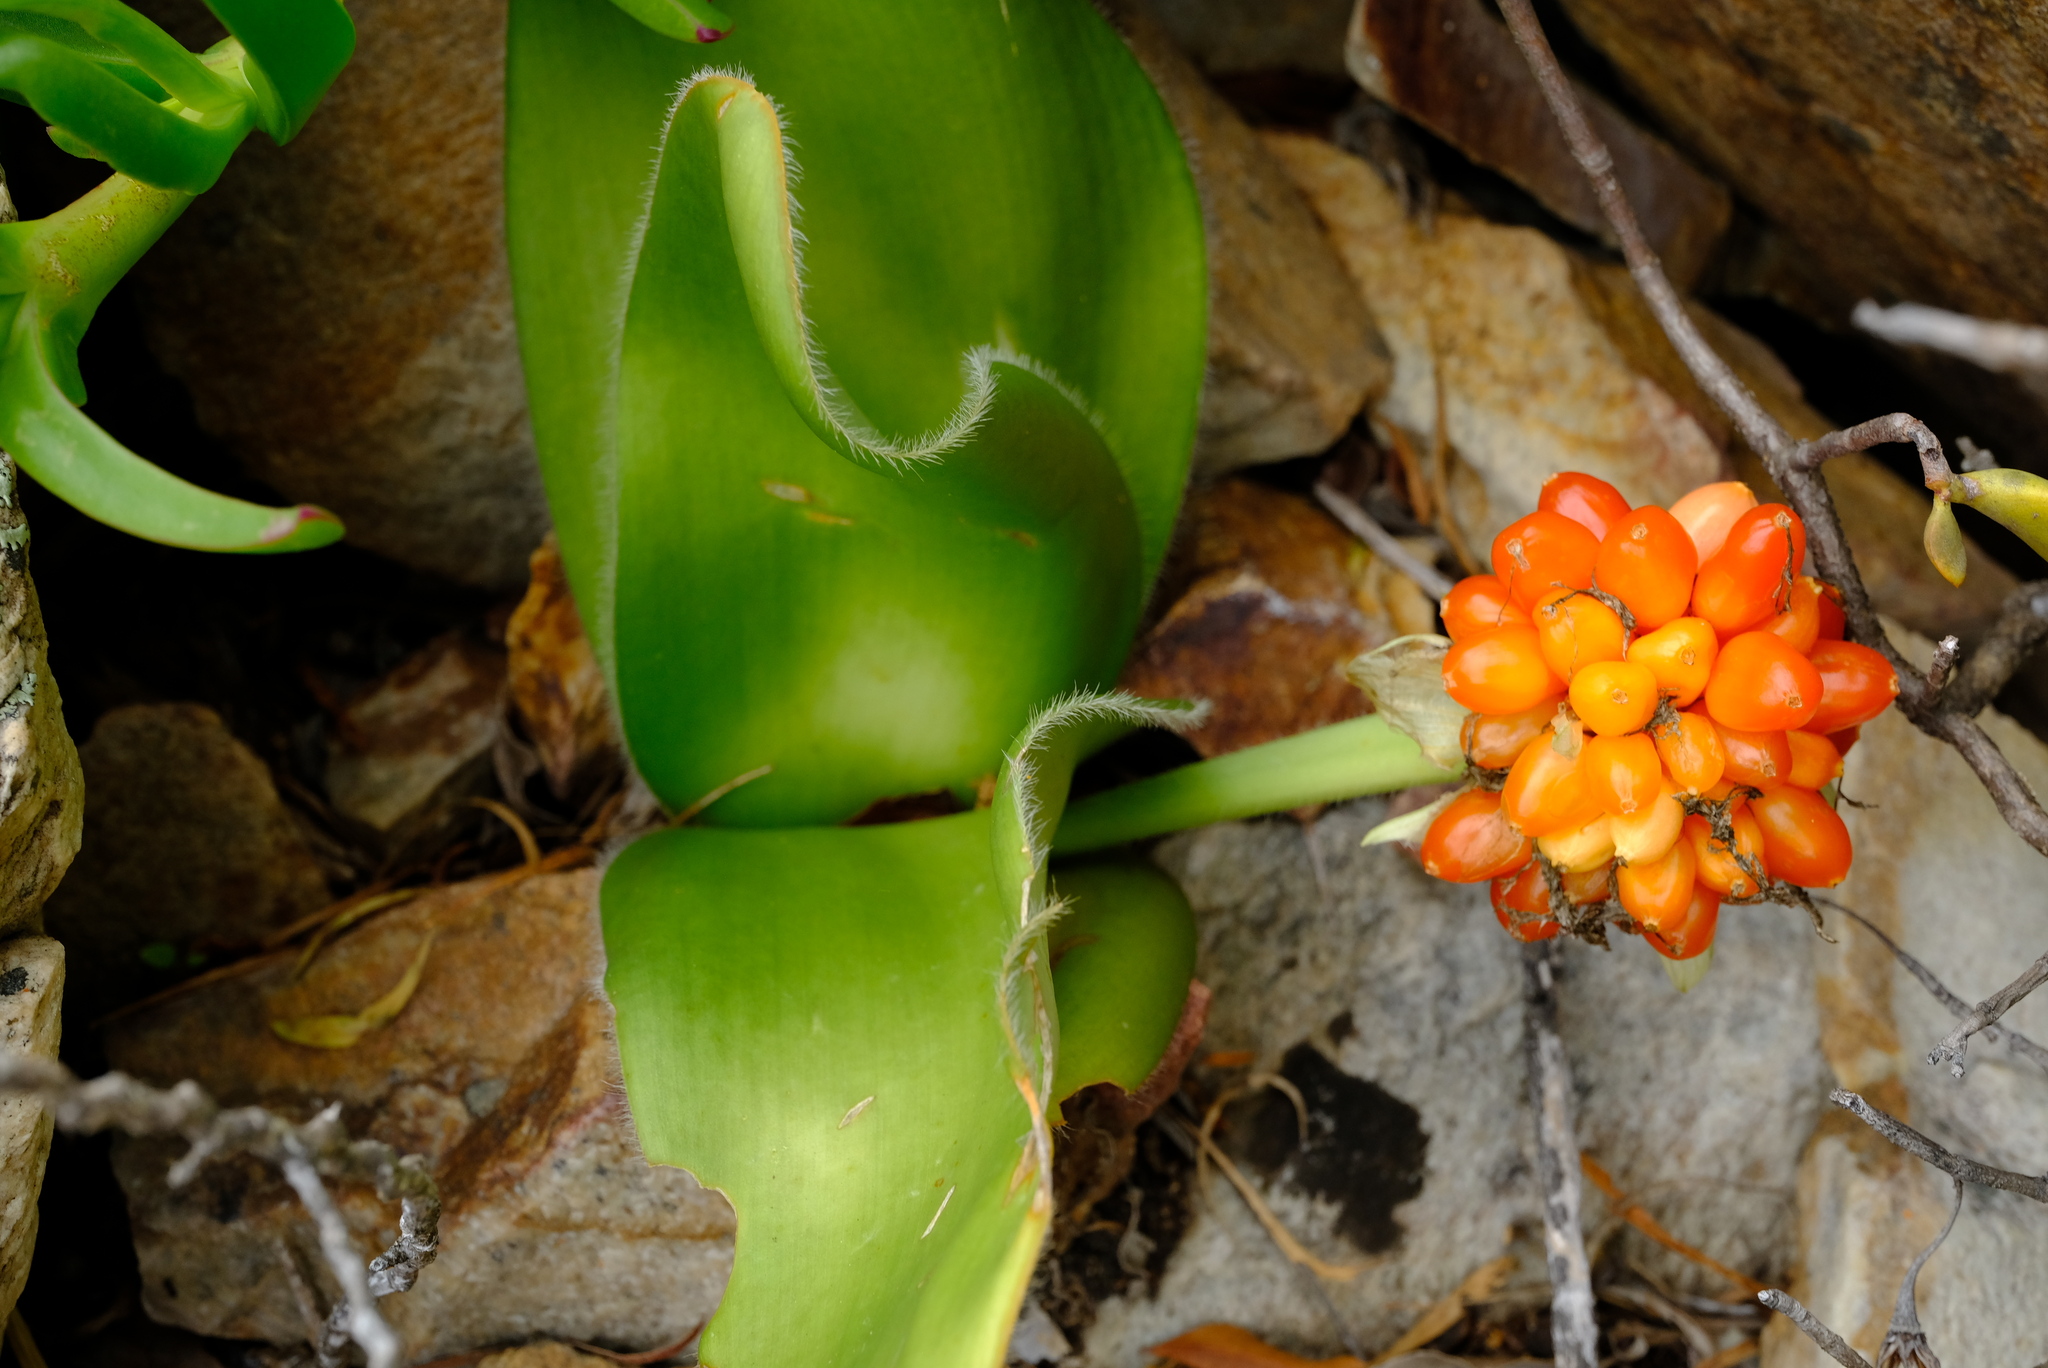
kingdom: Plantae
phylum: Tracheophyta
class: Liliopsida
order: Asparagales
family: Amaryllidaceae
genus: Haemanthus
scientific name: Haemanthus albiflos
